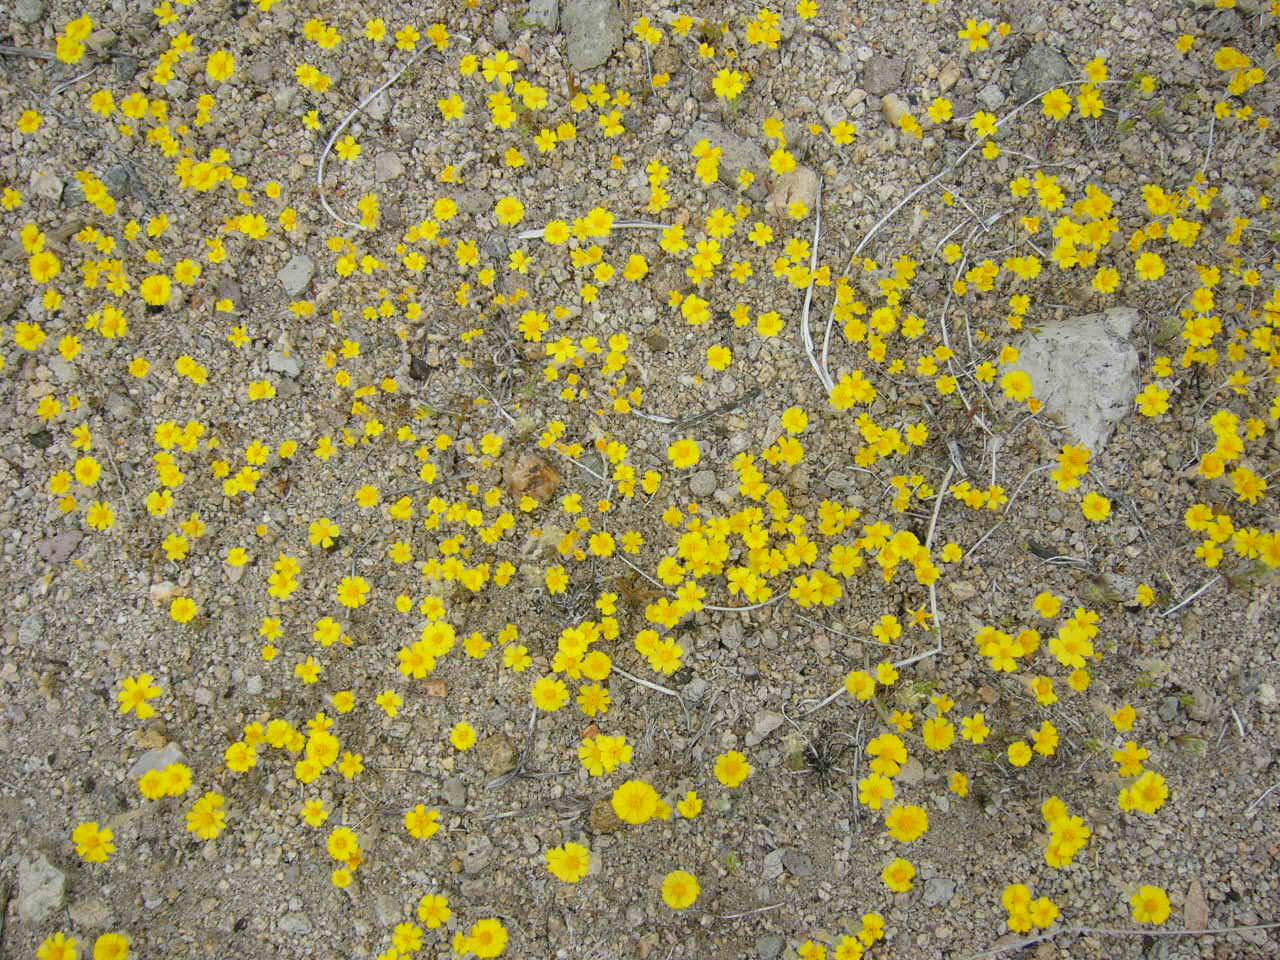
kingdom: Plantae
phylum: Tracheophyta
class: Magnoliopsida
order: Asterales
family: Asteraceae
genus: Eriophyllum
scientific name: Eriophyllum wallacei
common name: Wallace's woolly daisy
